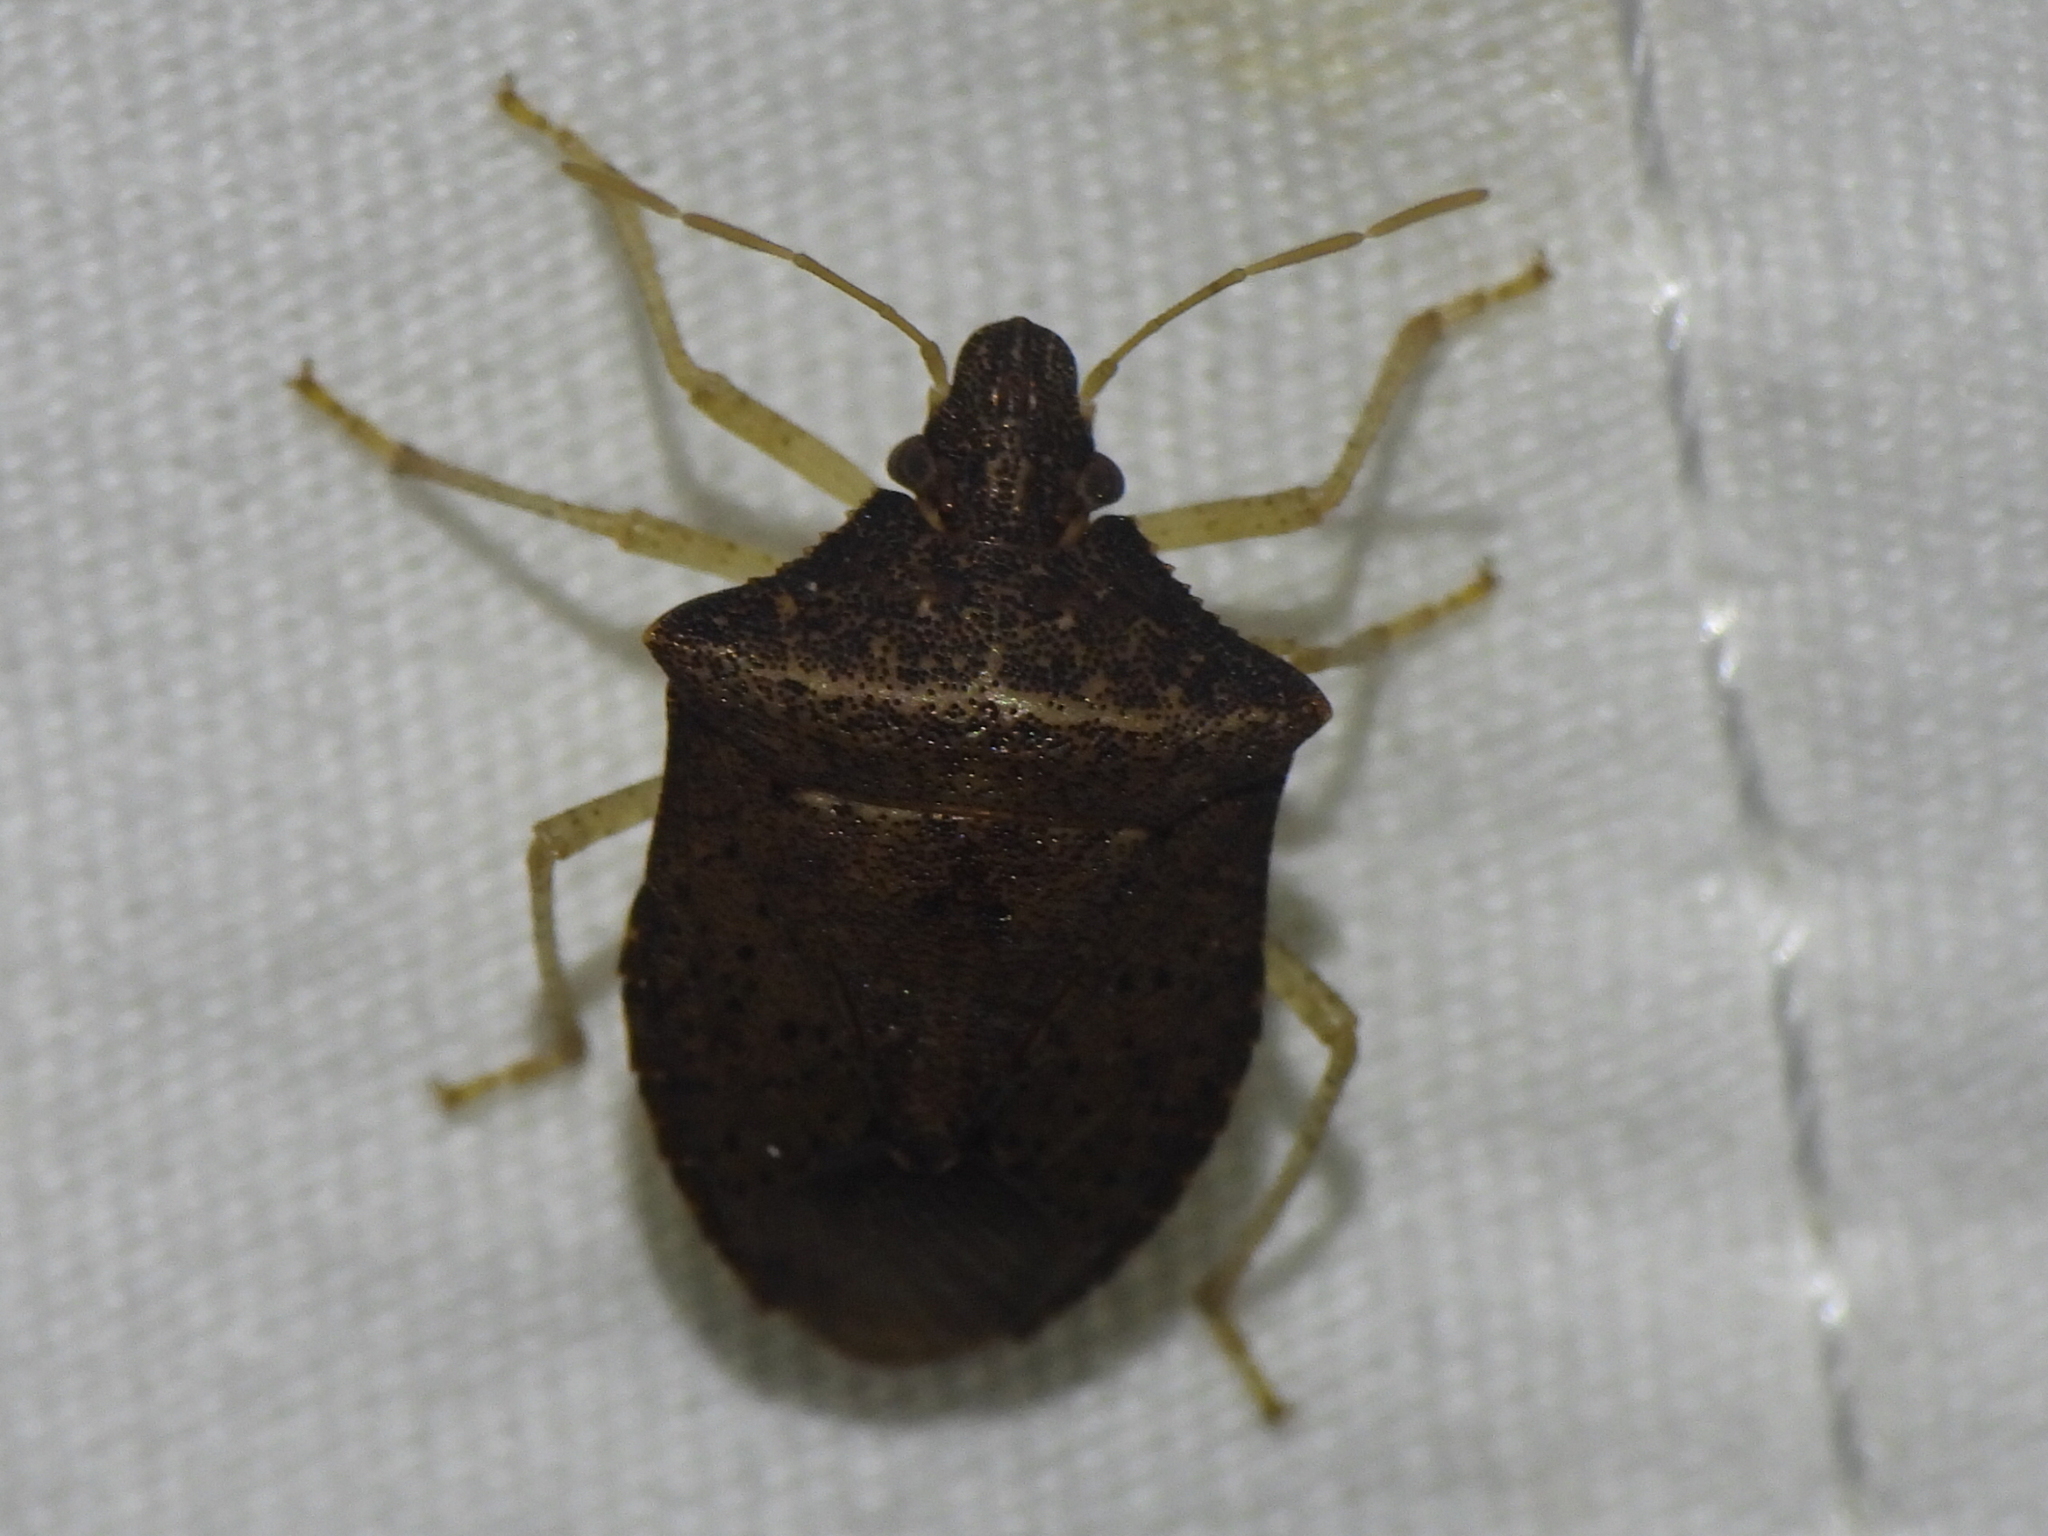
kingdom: Animalia
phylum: Arthropoda
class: Insecta
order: Hemiptera
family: Pentatomidae
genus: Euschistus
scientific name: Euschistus obscurus
